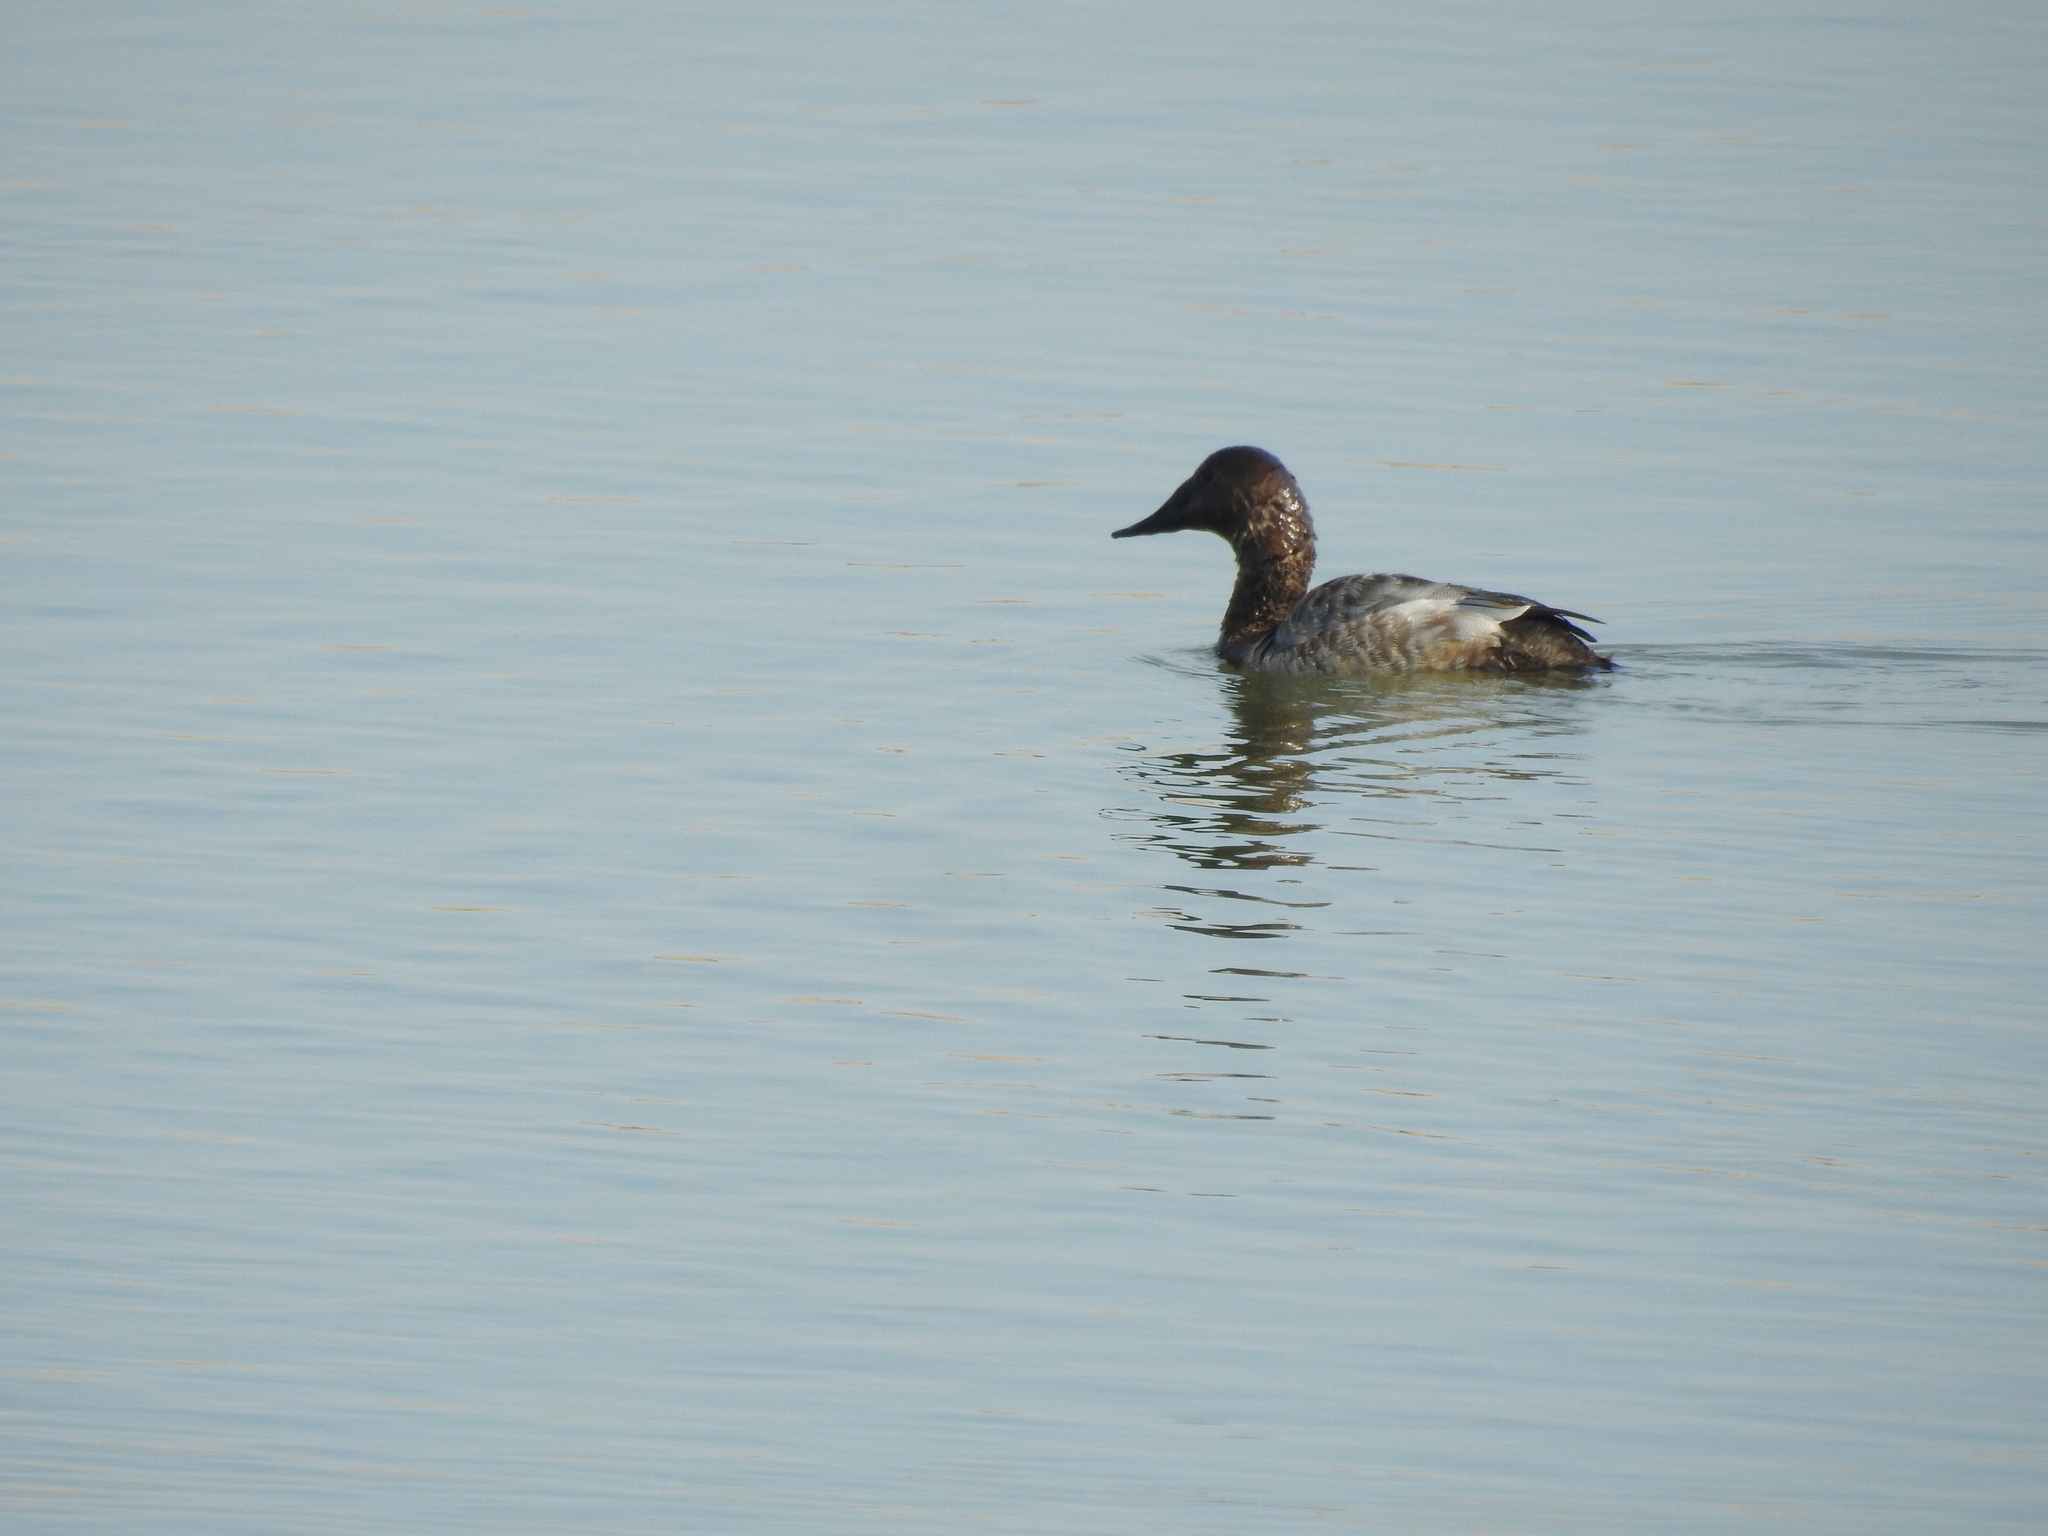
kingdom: Animalia
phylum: Chordata
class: Aves
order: Anseriformes
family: Anatidae
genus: Aythya
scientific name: Aythya valisineria
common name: Canvasback
